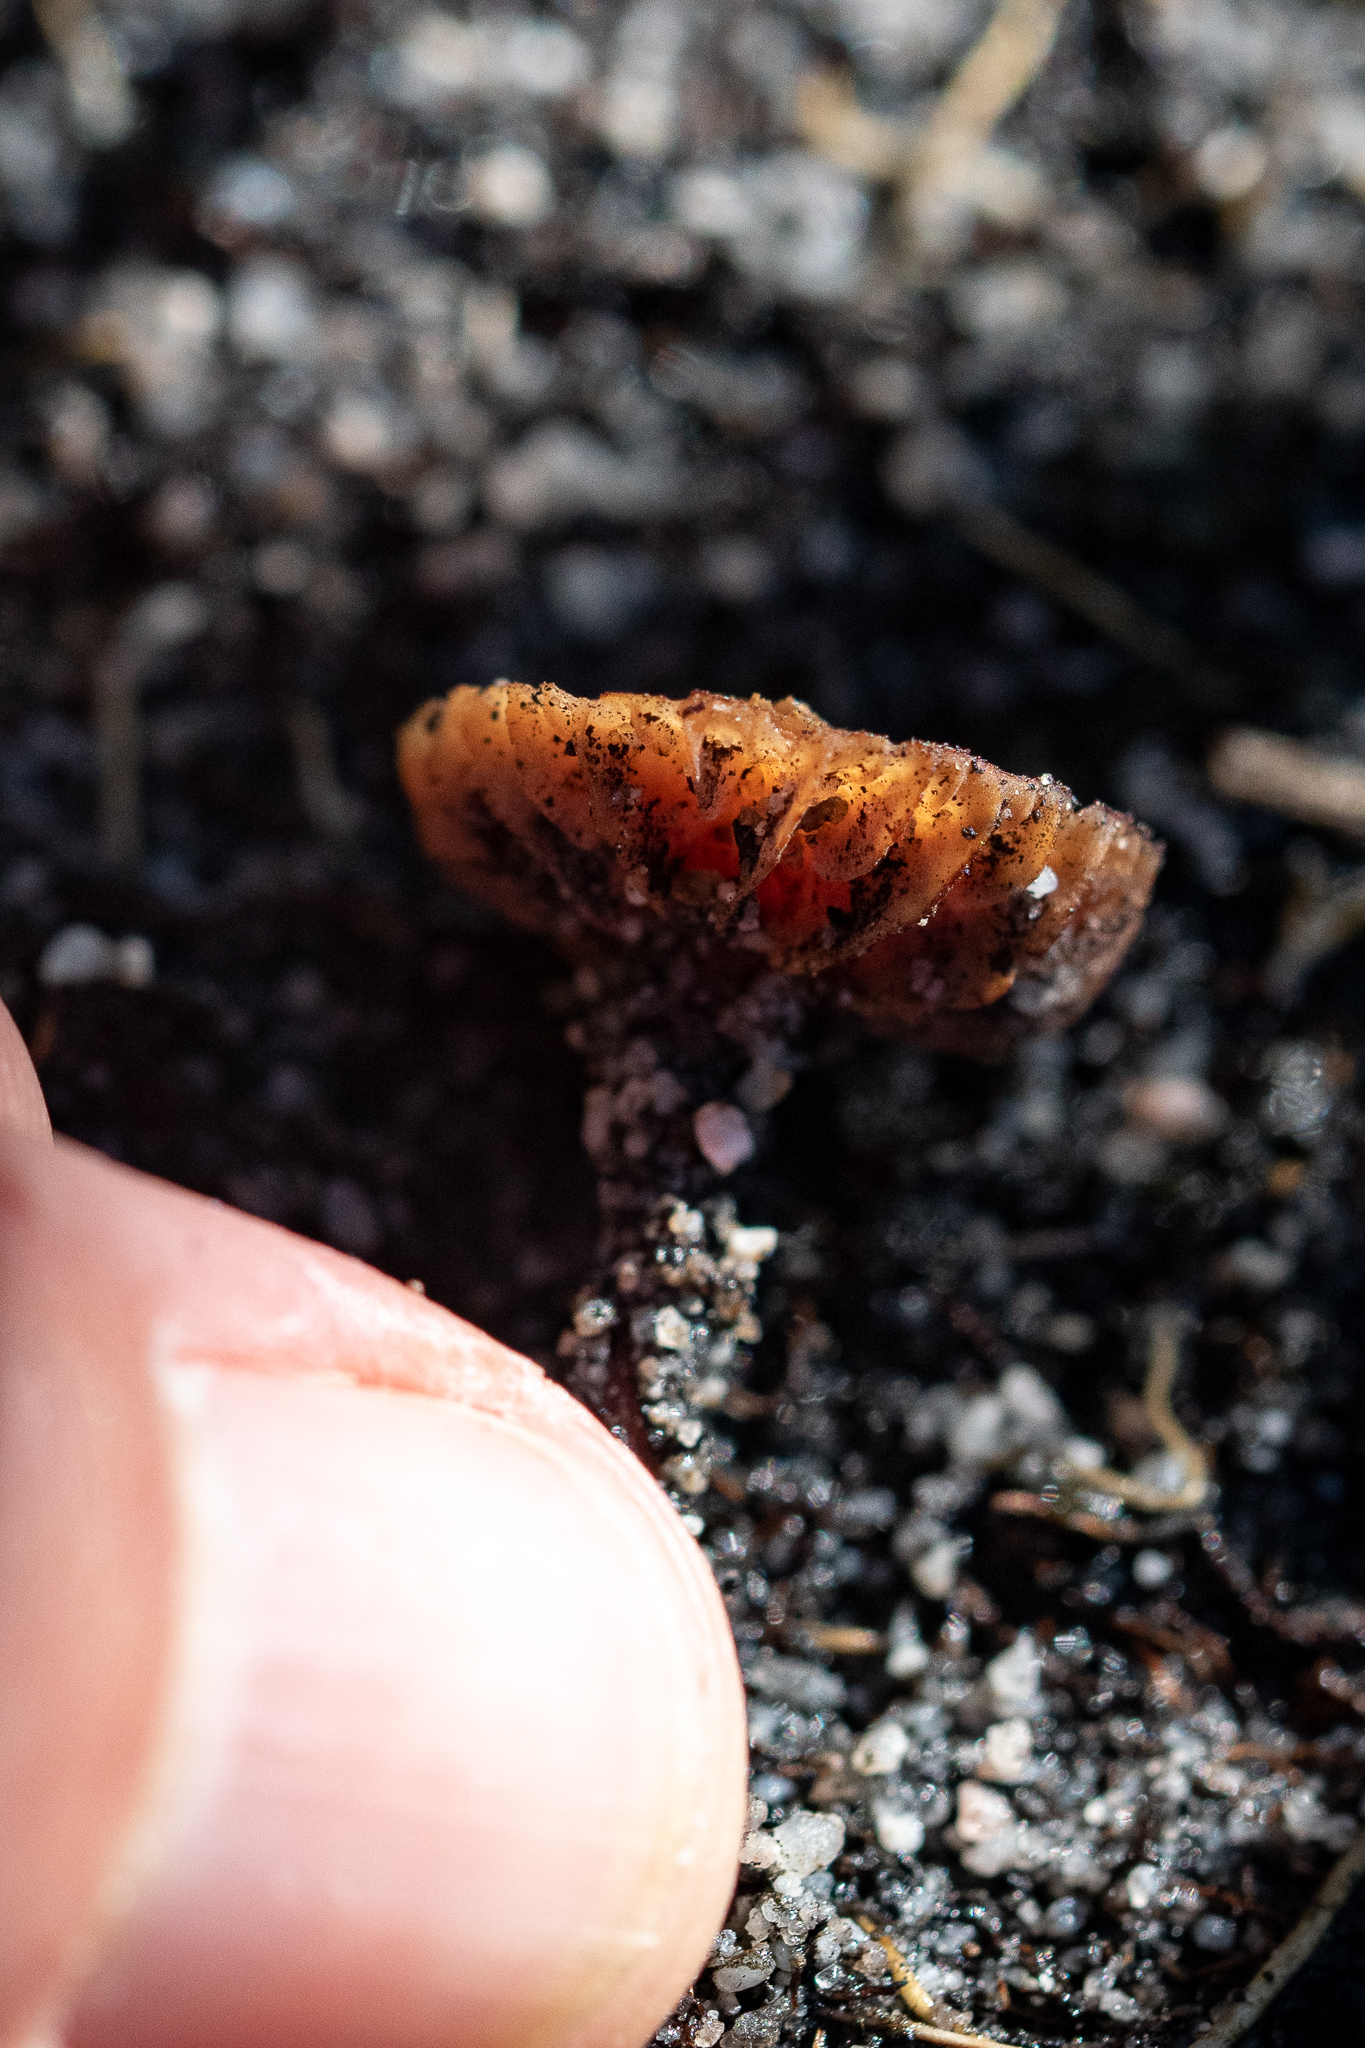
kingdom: Fungi
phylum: Basidiomycota
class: Agaricomycetes
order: Agaricales
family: Hydnangiaceae
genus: Laccaria
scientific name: Laccaria tortilis
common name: Twisted deceiver
